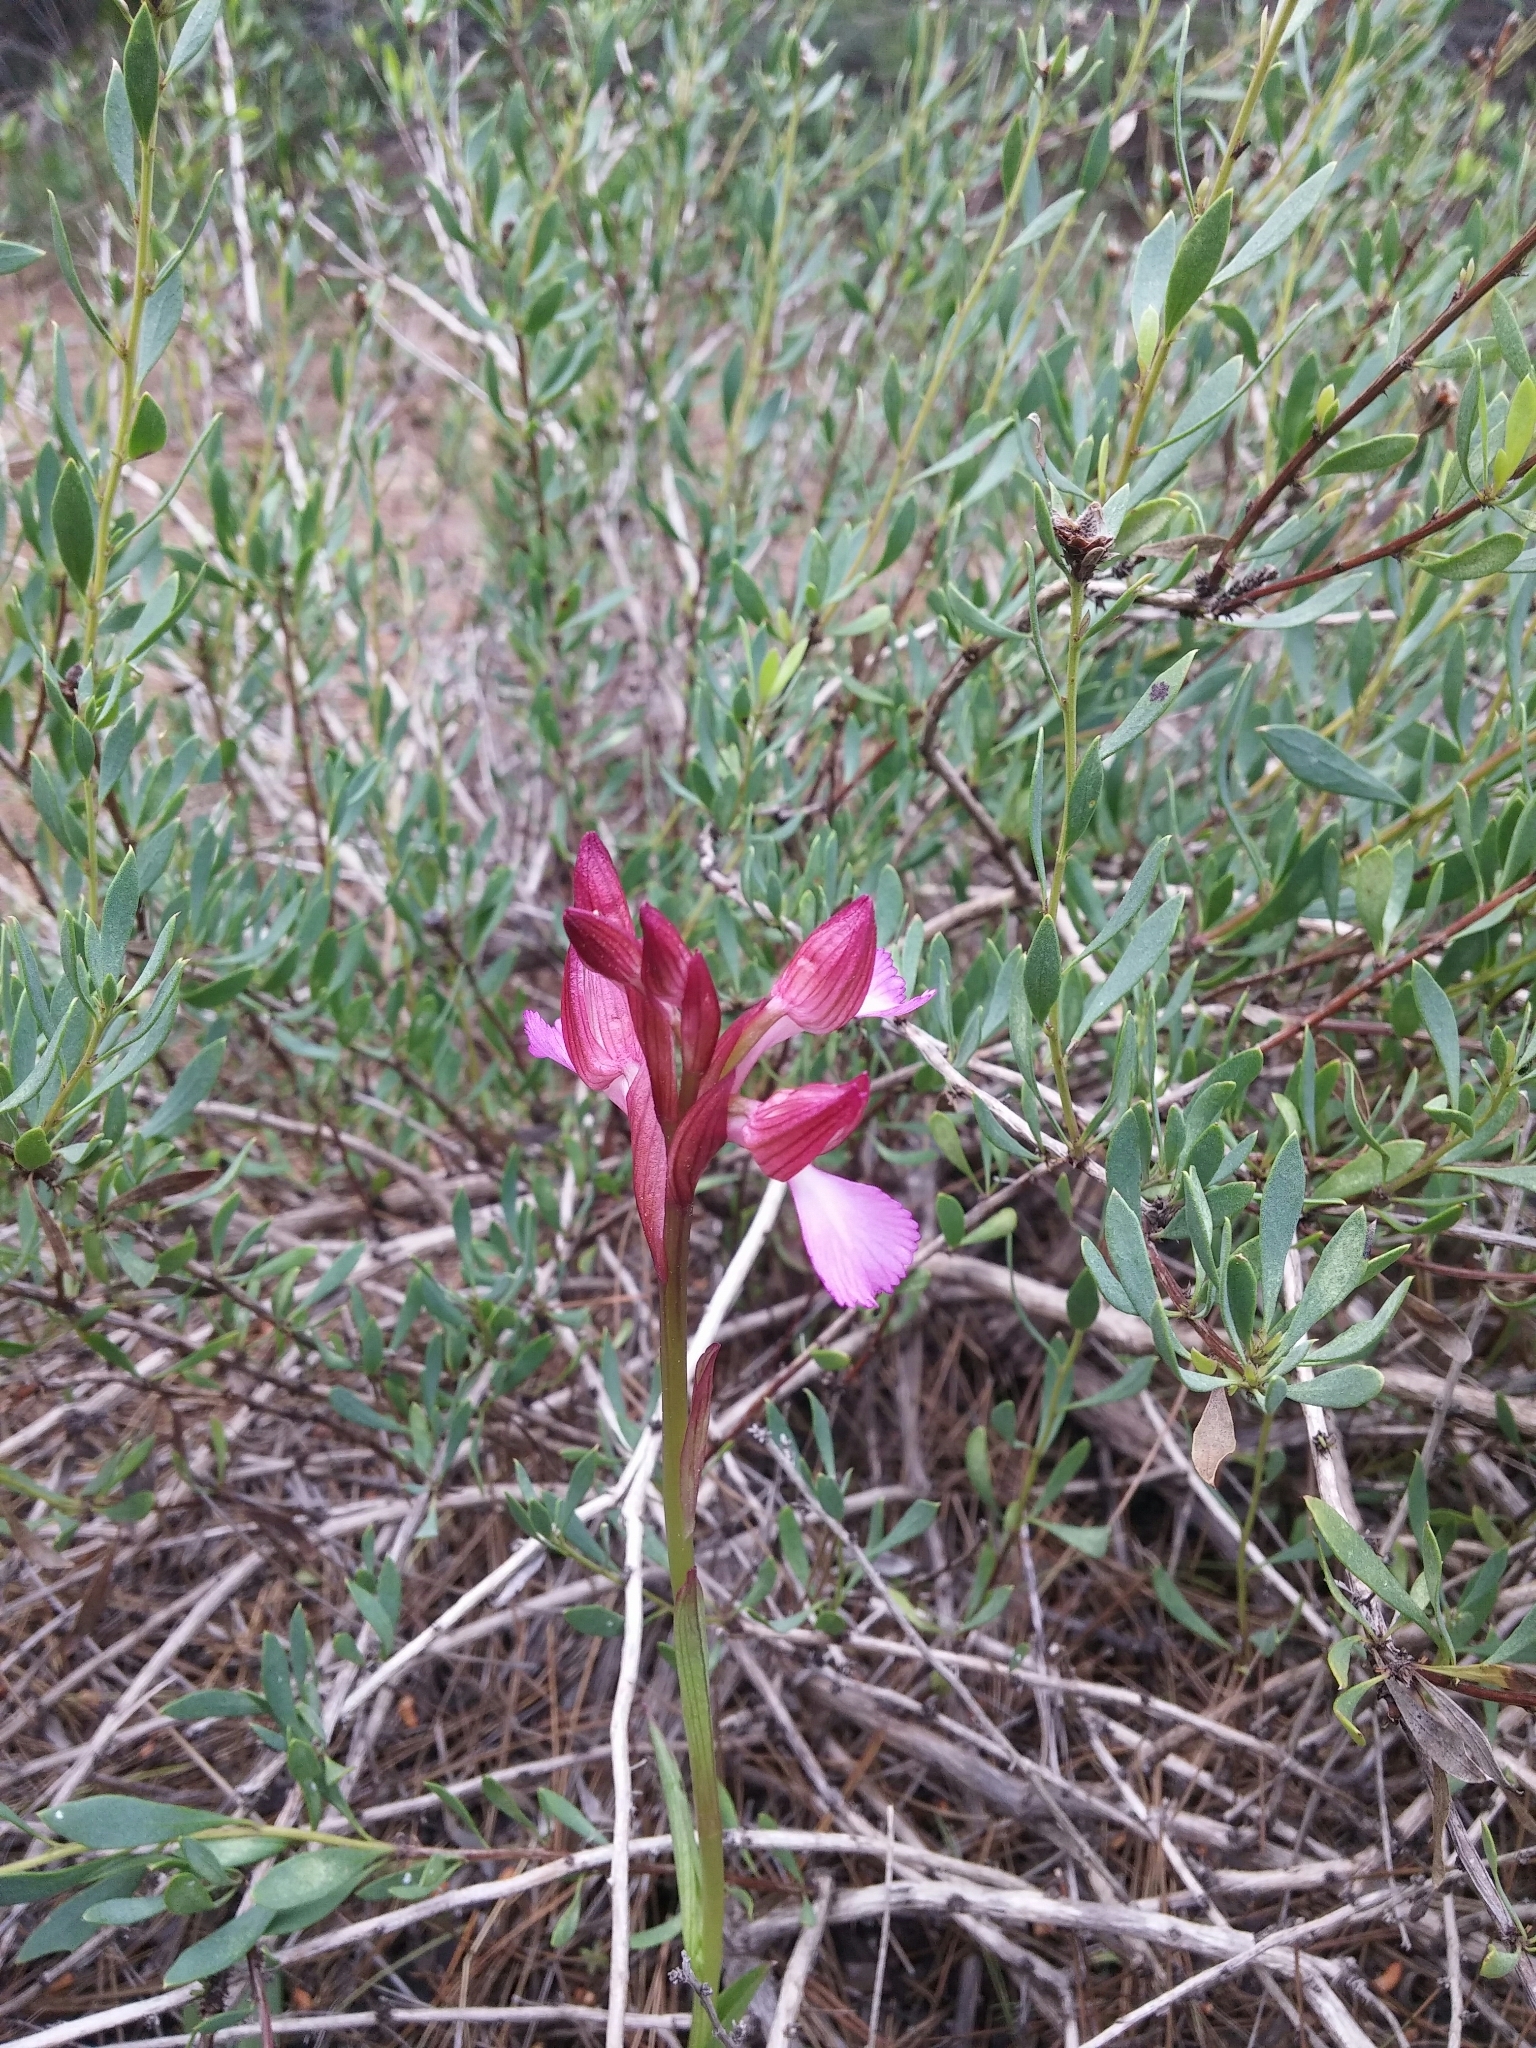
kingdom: Plantae
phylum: Tracheophyta
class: Liliopsida
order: Asparagales
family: Orchidaceae
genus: Anacamptis
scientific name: Anacamptis papilionacea
